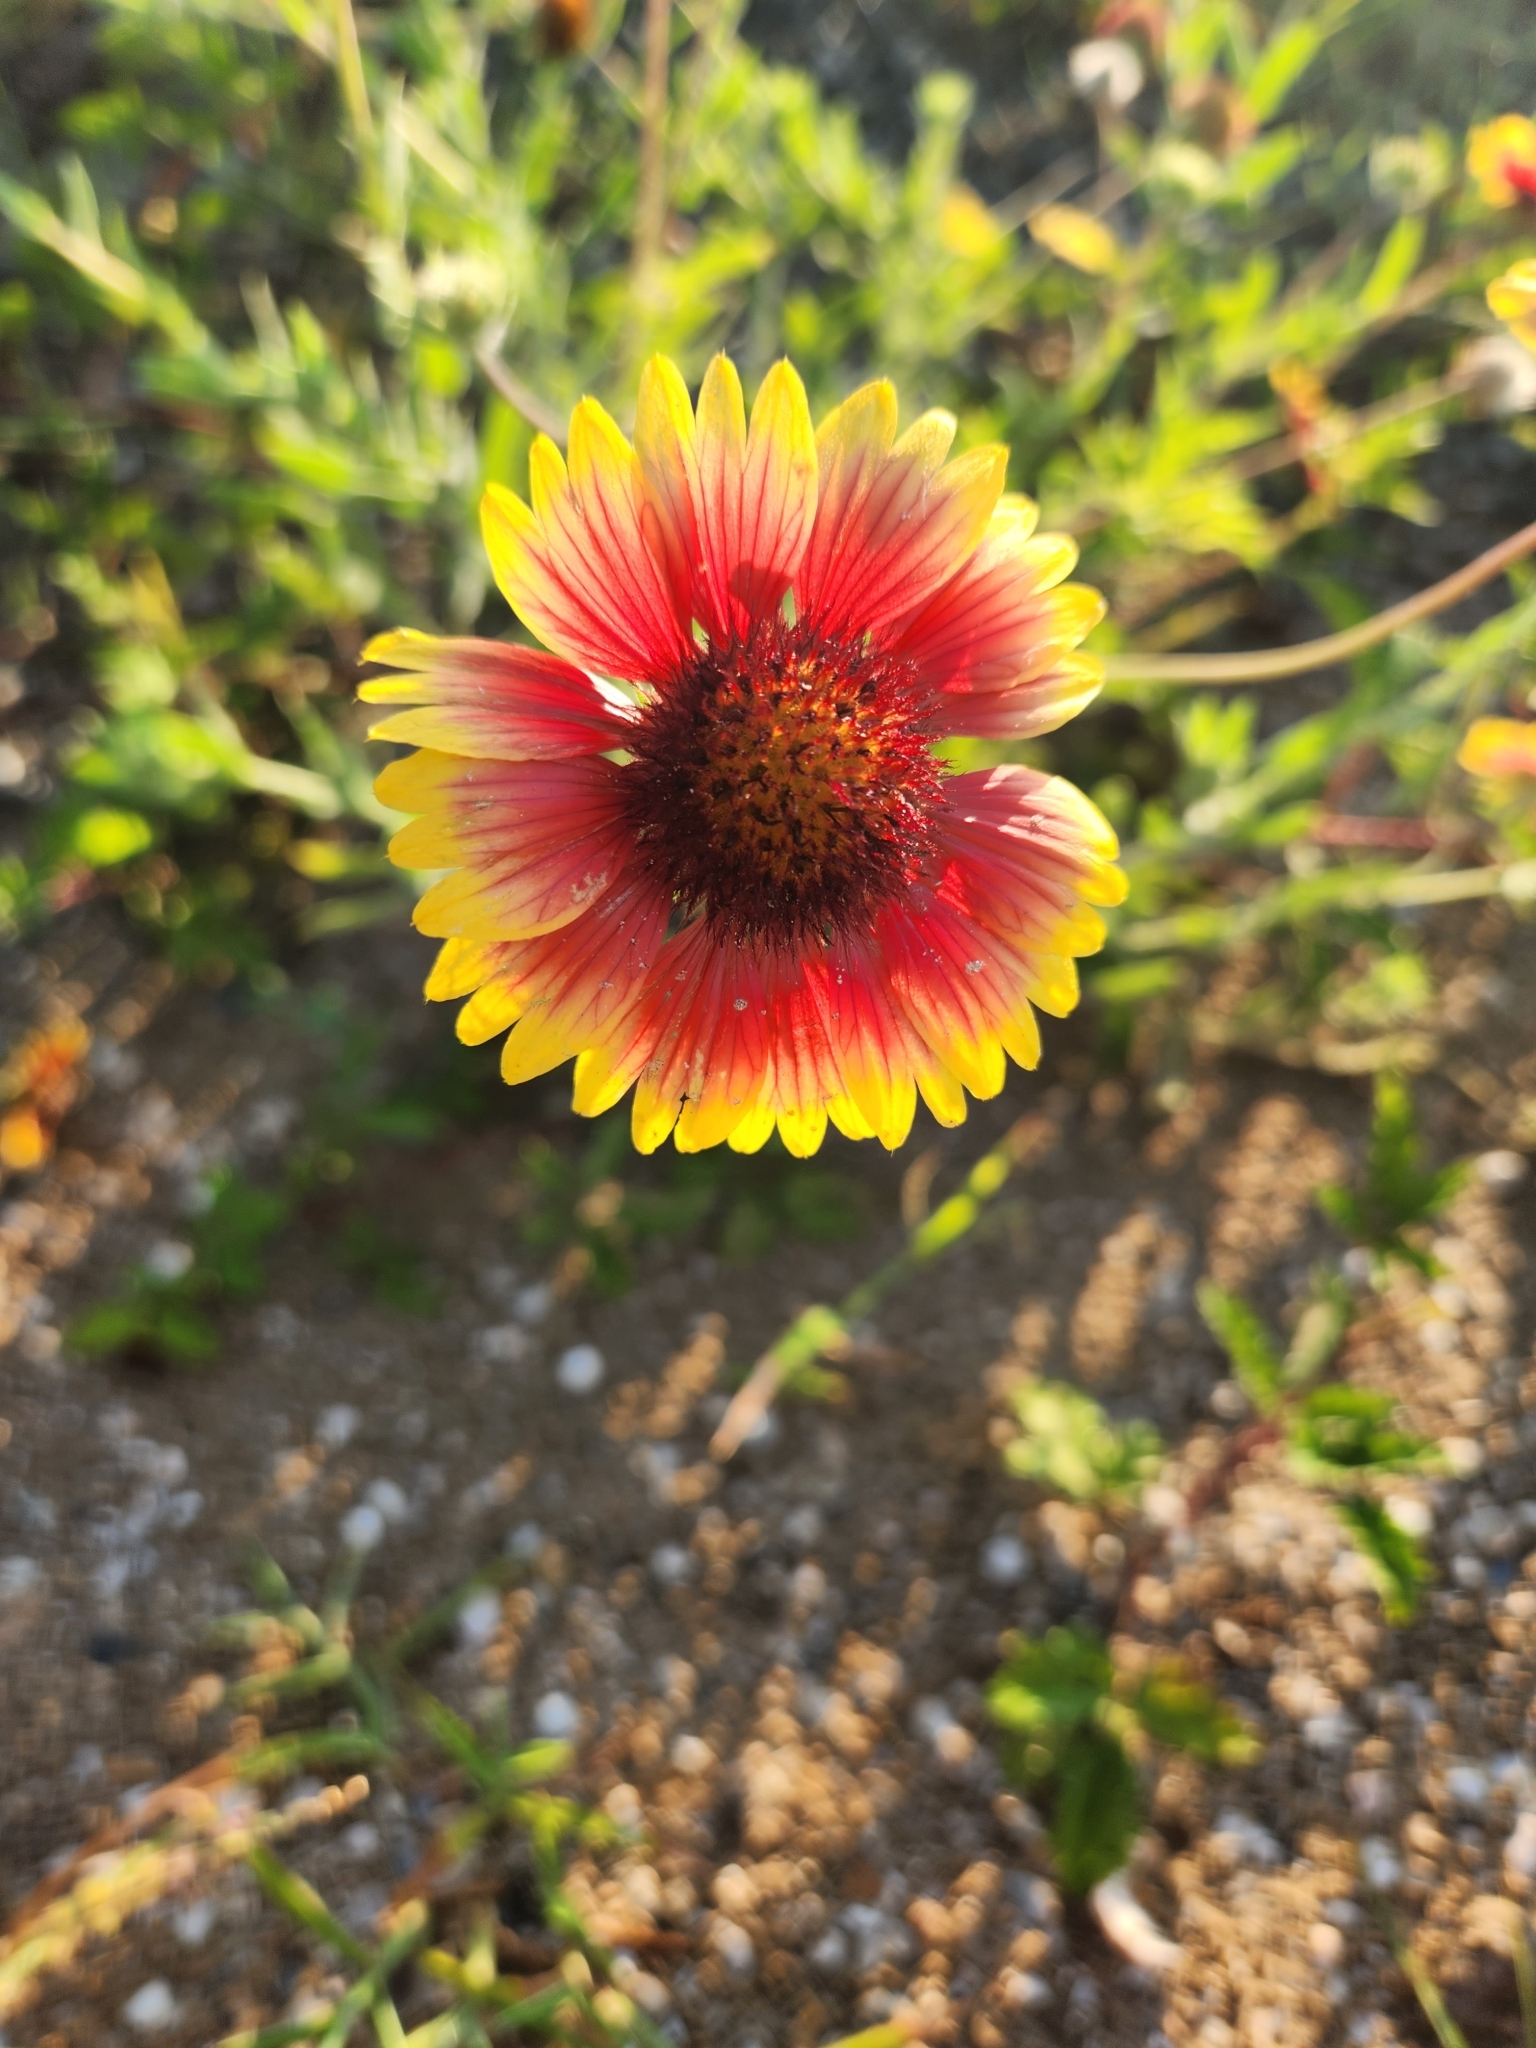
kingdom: Plantae
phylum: Tracheophyta
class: Magnoliopsida
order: Asterales
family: Asteraceae
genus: Gaillardia
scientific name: Gaillardia pulchella
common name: Firewheel
